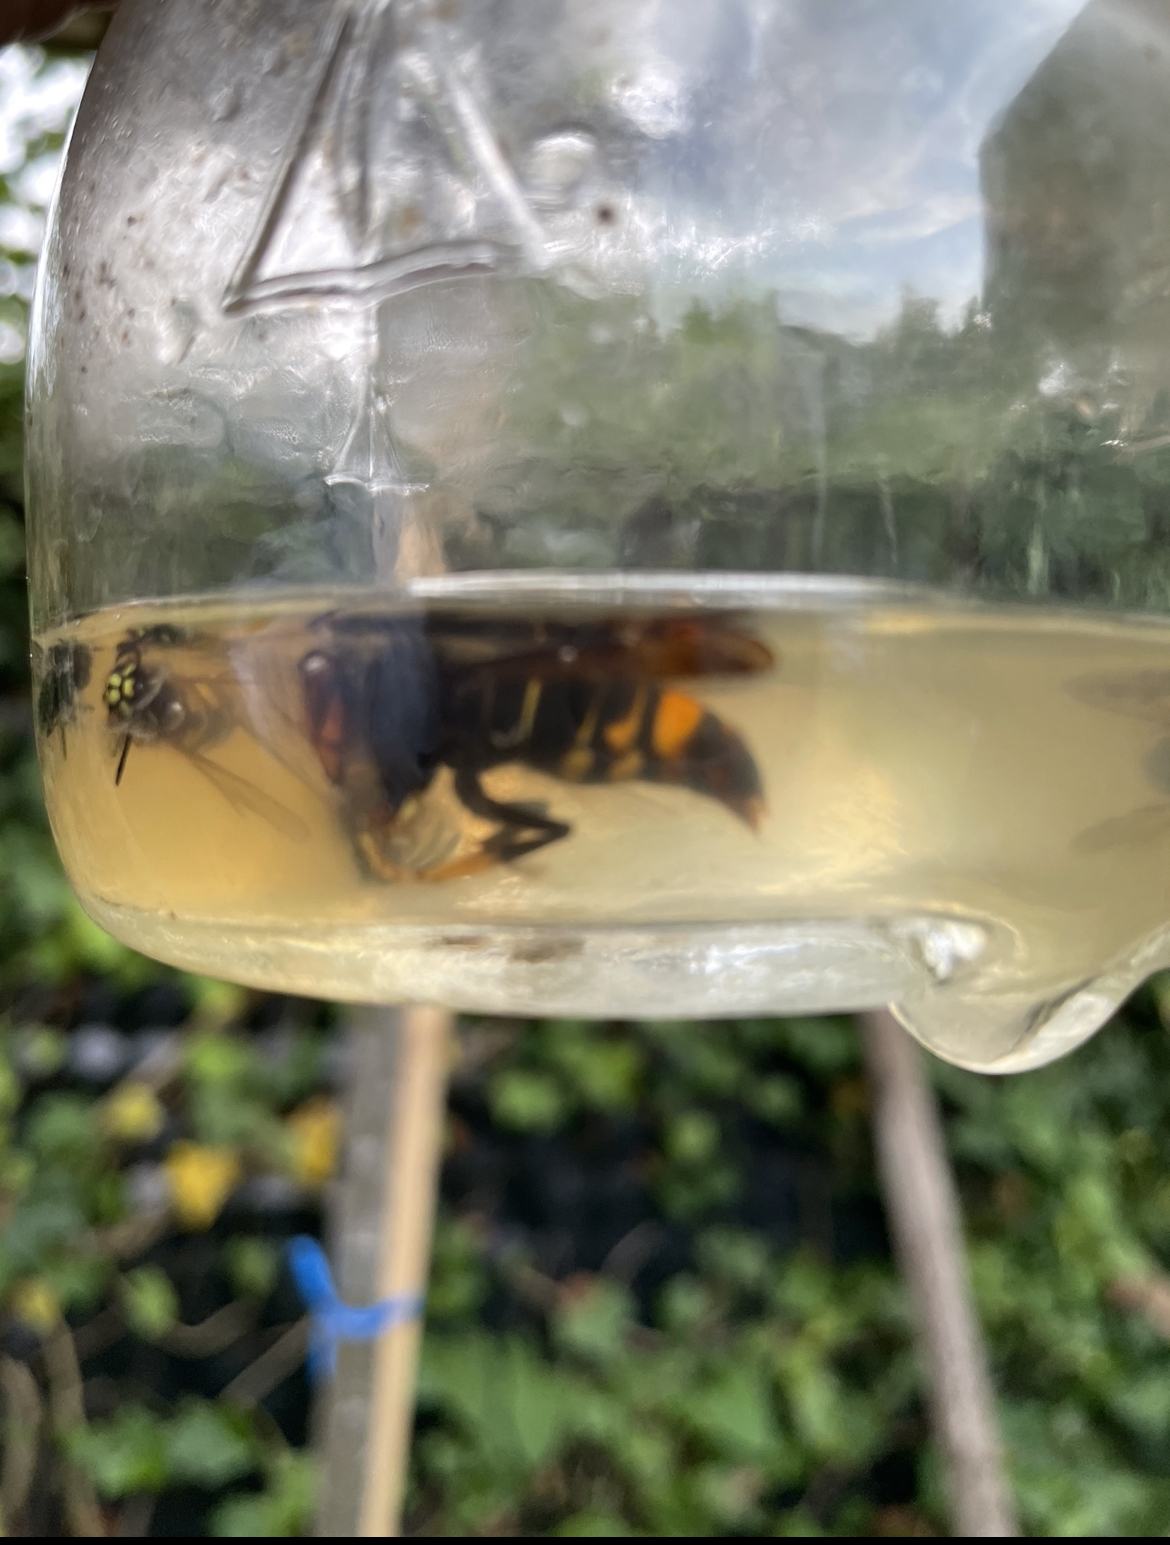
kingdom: Animalia
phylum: Arthropoda
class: Insecta
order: Hymenoptera
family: Vespidae
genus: Vespa
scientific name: Vespa velutina
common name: Asian hornet
